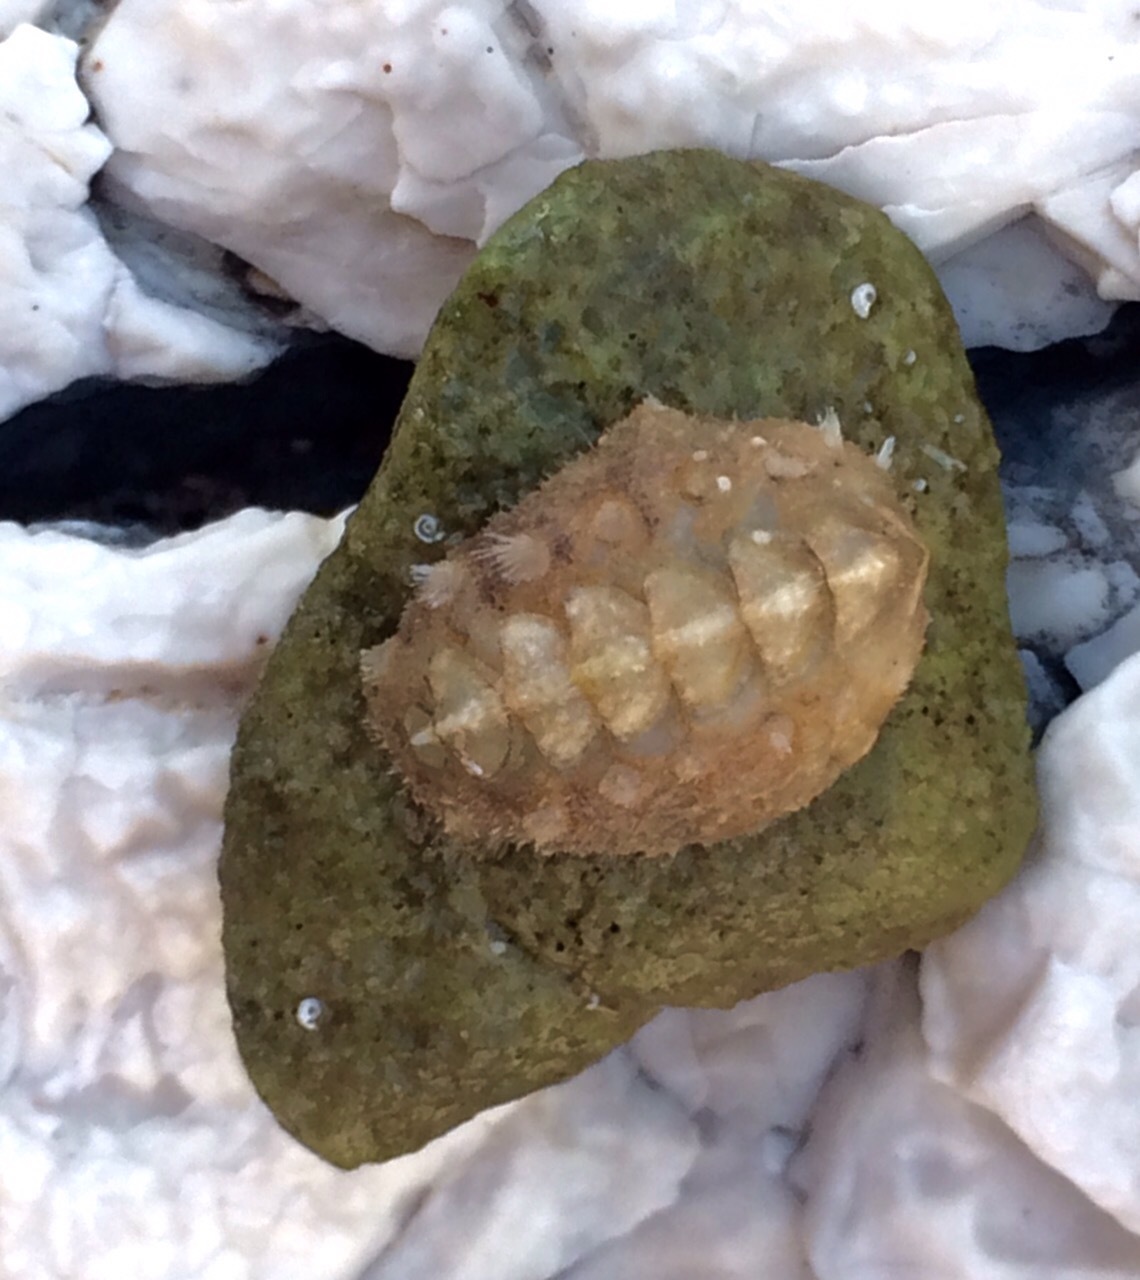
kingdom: Animalia
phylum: Mollusca
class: Polyplacophora
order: Chitonida
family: Acanthochitonidae
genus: Acanthochitona
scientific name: Acanthochitona fascicularis
